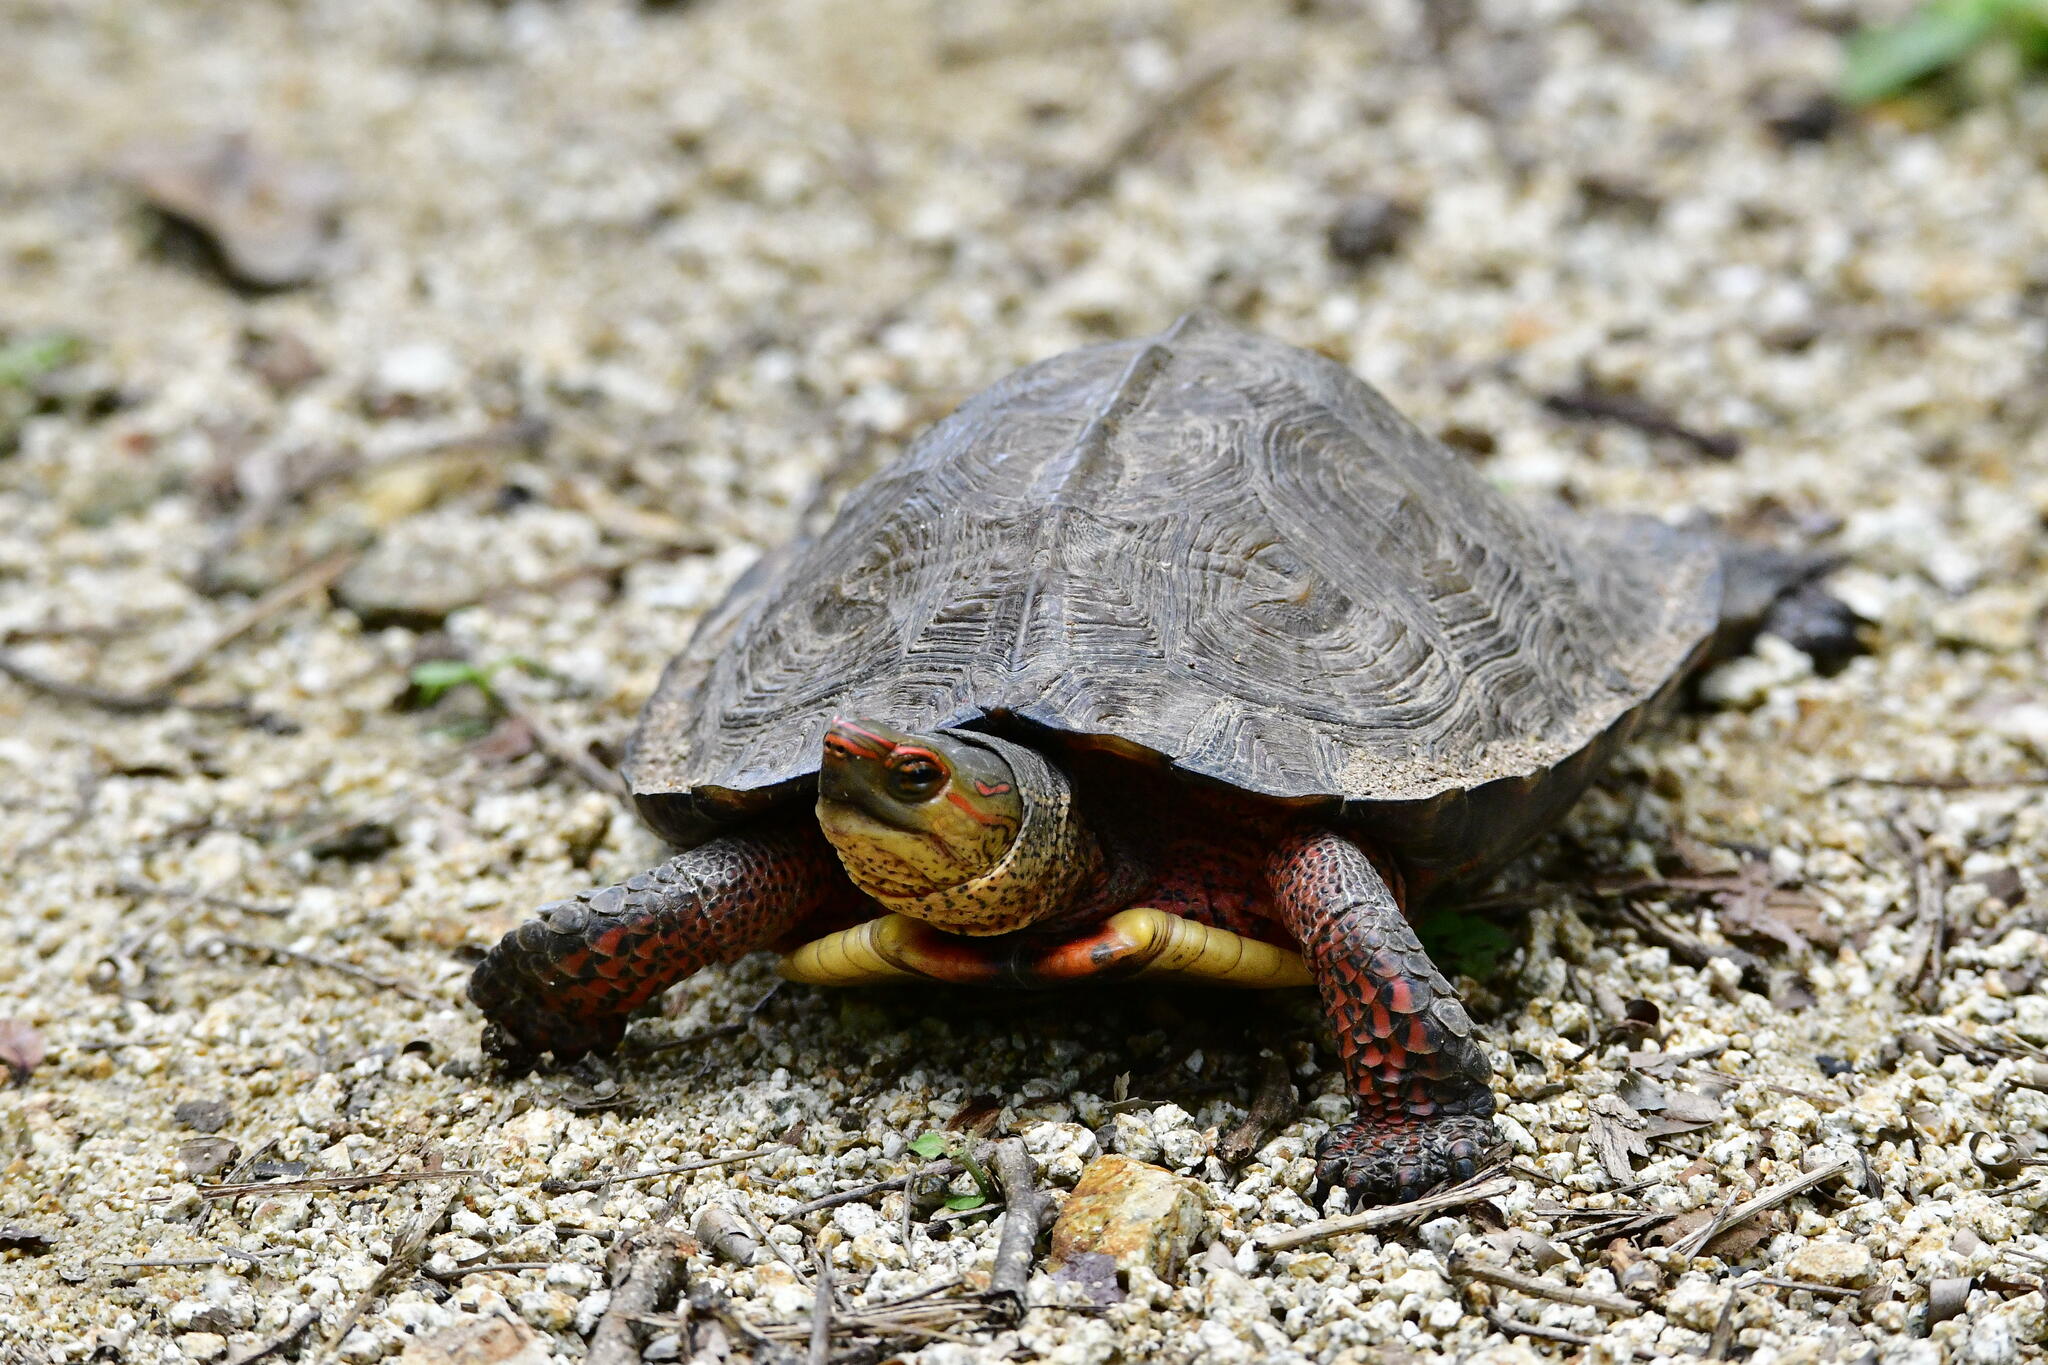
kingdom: Animalia
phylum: Chordata
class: Testudines
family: Geoemydidae
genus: Rhinoclemmys
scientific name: Rhinoclemmys pulcherrima
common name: Painted wood turtle
